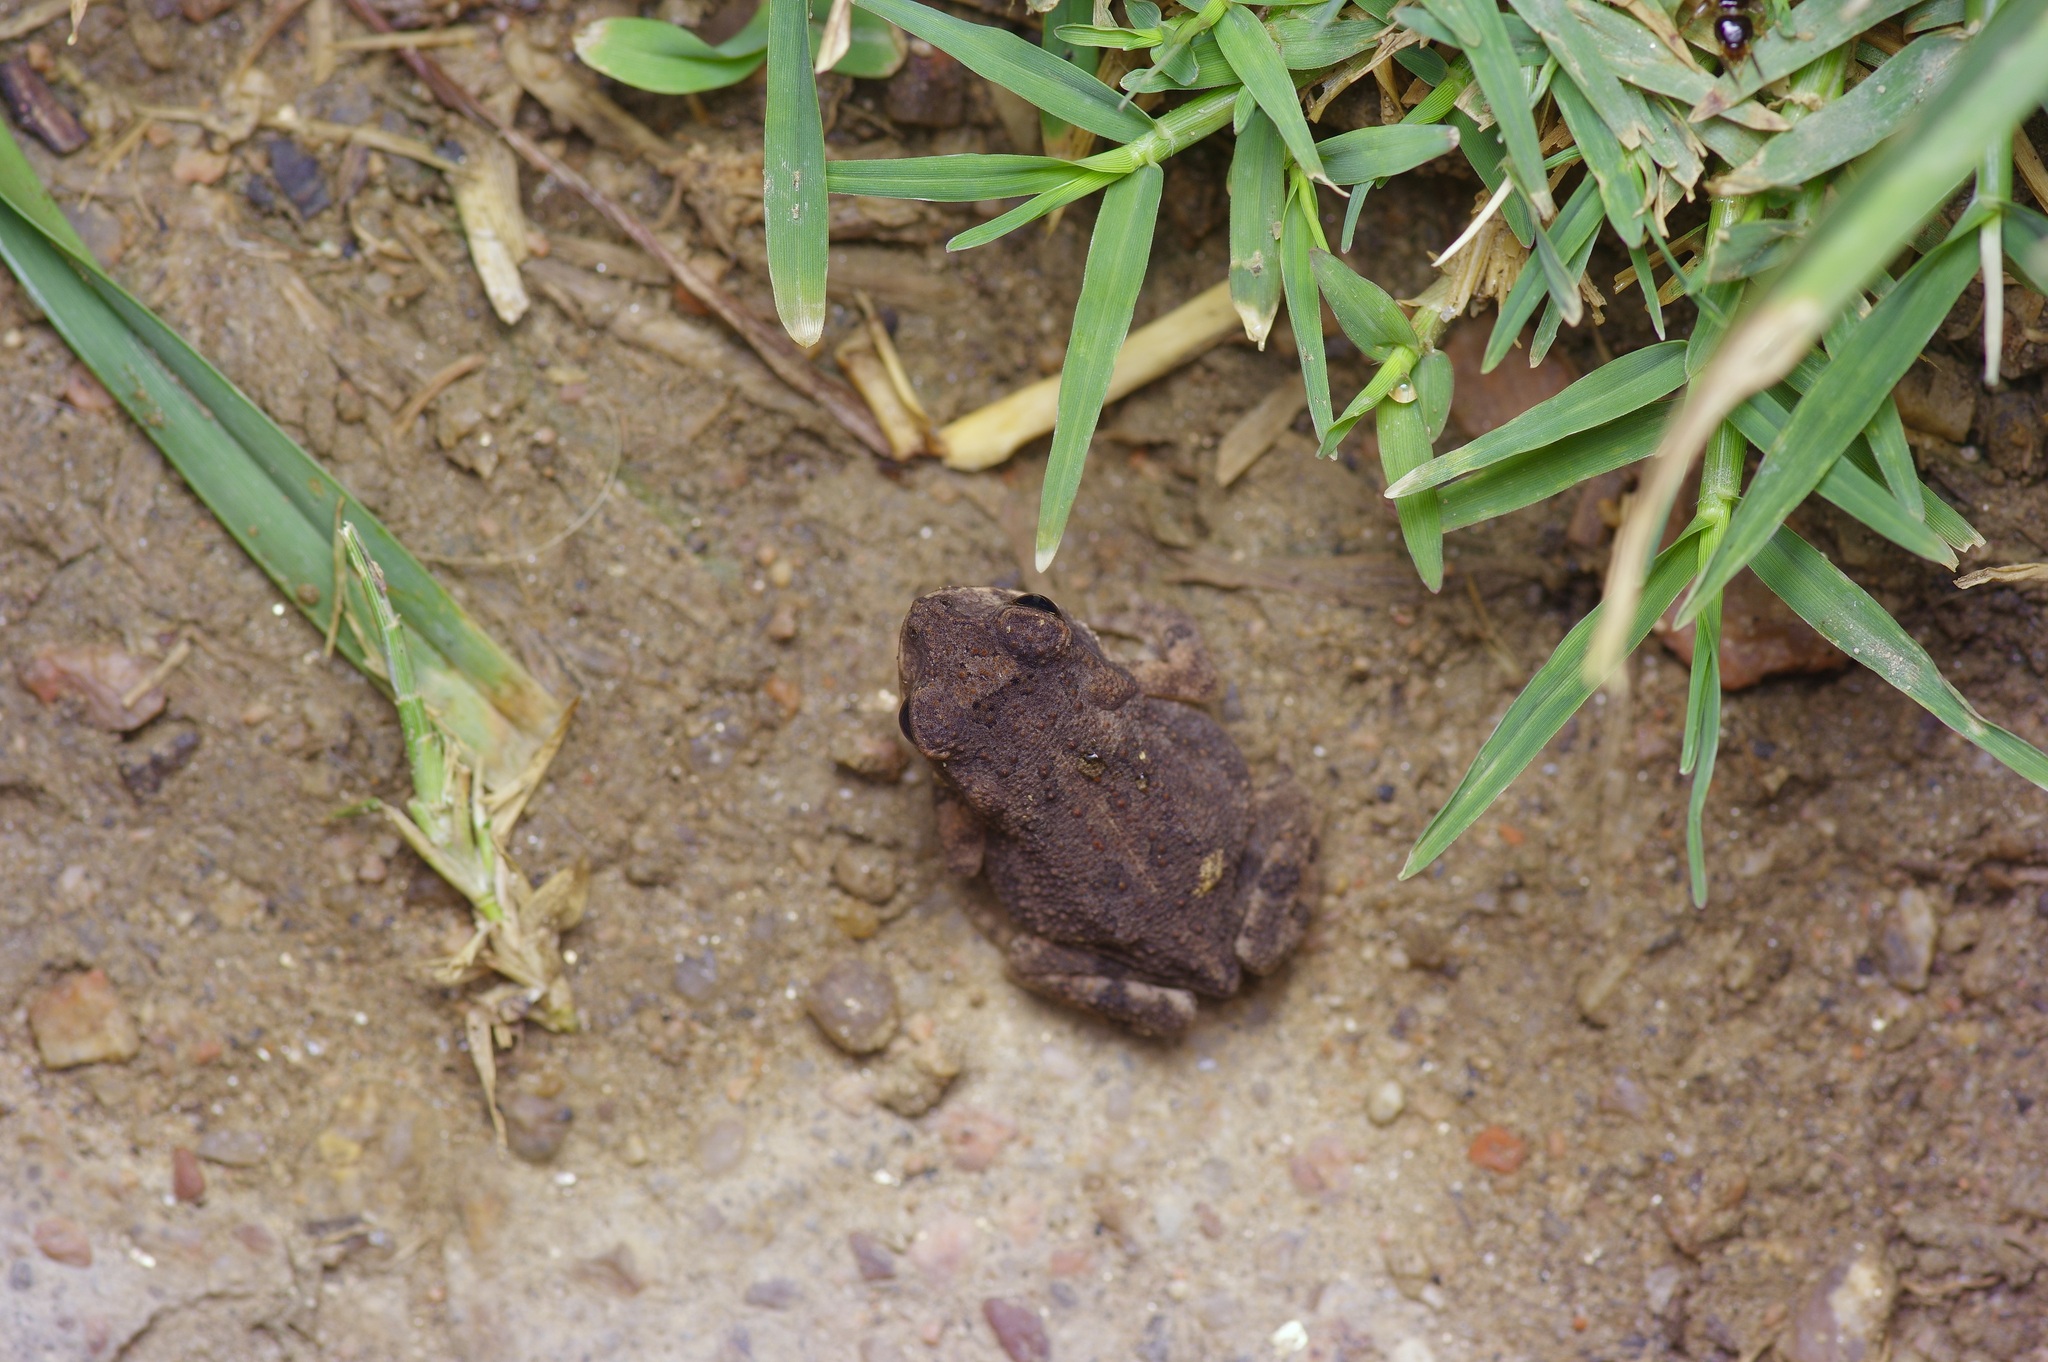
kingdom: Animalia
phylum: Chordata
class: Amphibia
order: Anura
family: Bufonidae
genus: Incilius
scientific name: Incilius nebulifer
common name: Gulf coast toad
